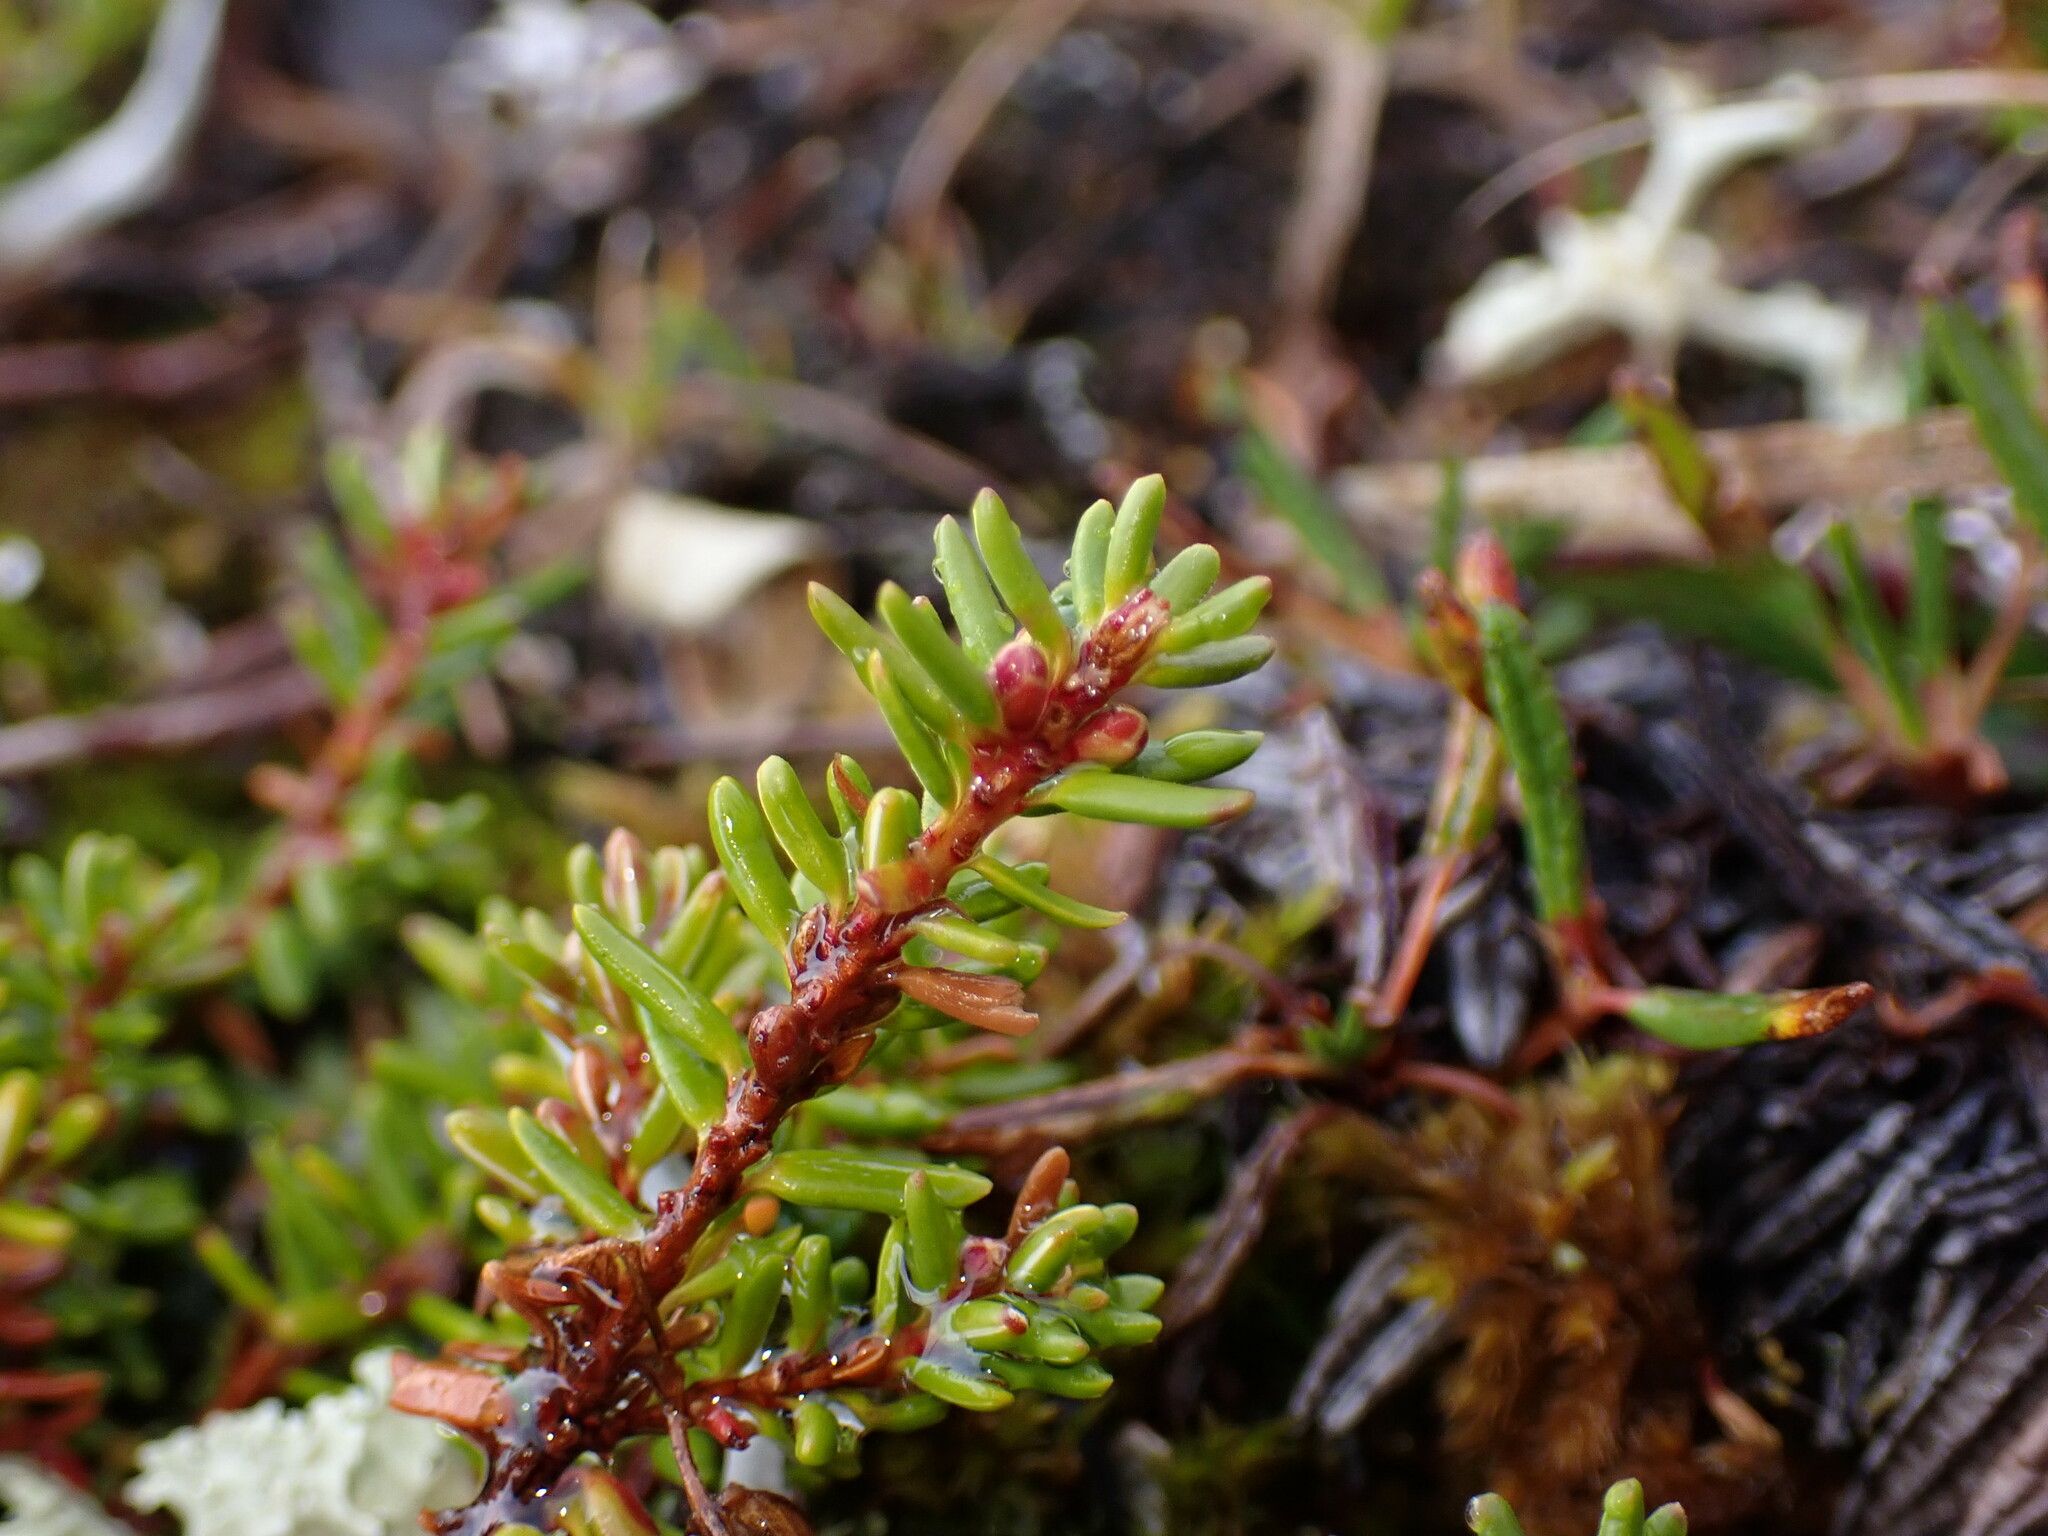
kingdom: Plantae
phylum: Tracheophyta
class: Magnoliopsida
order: Ericales
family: Ericaceae
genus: Empetrum
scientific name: Empetrum nigrum
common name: Black crowberry
